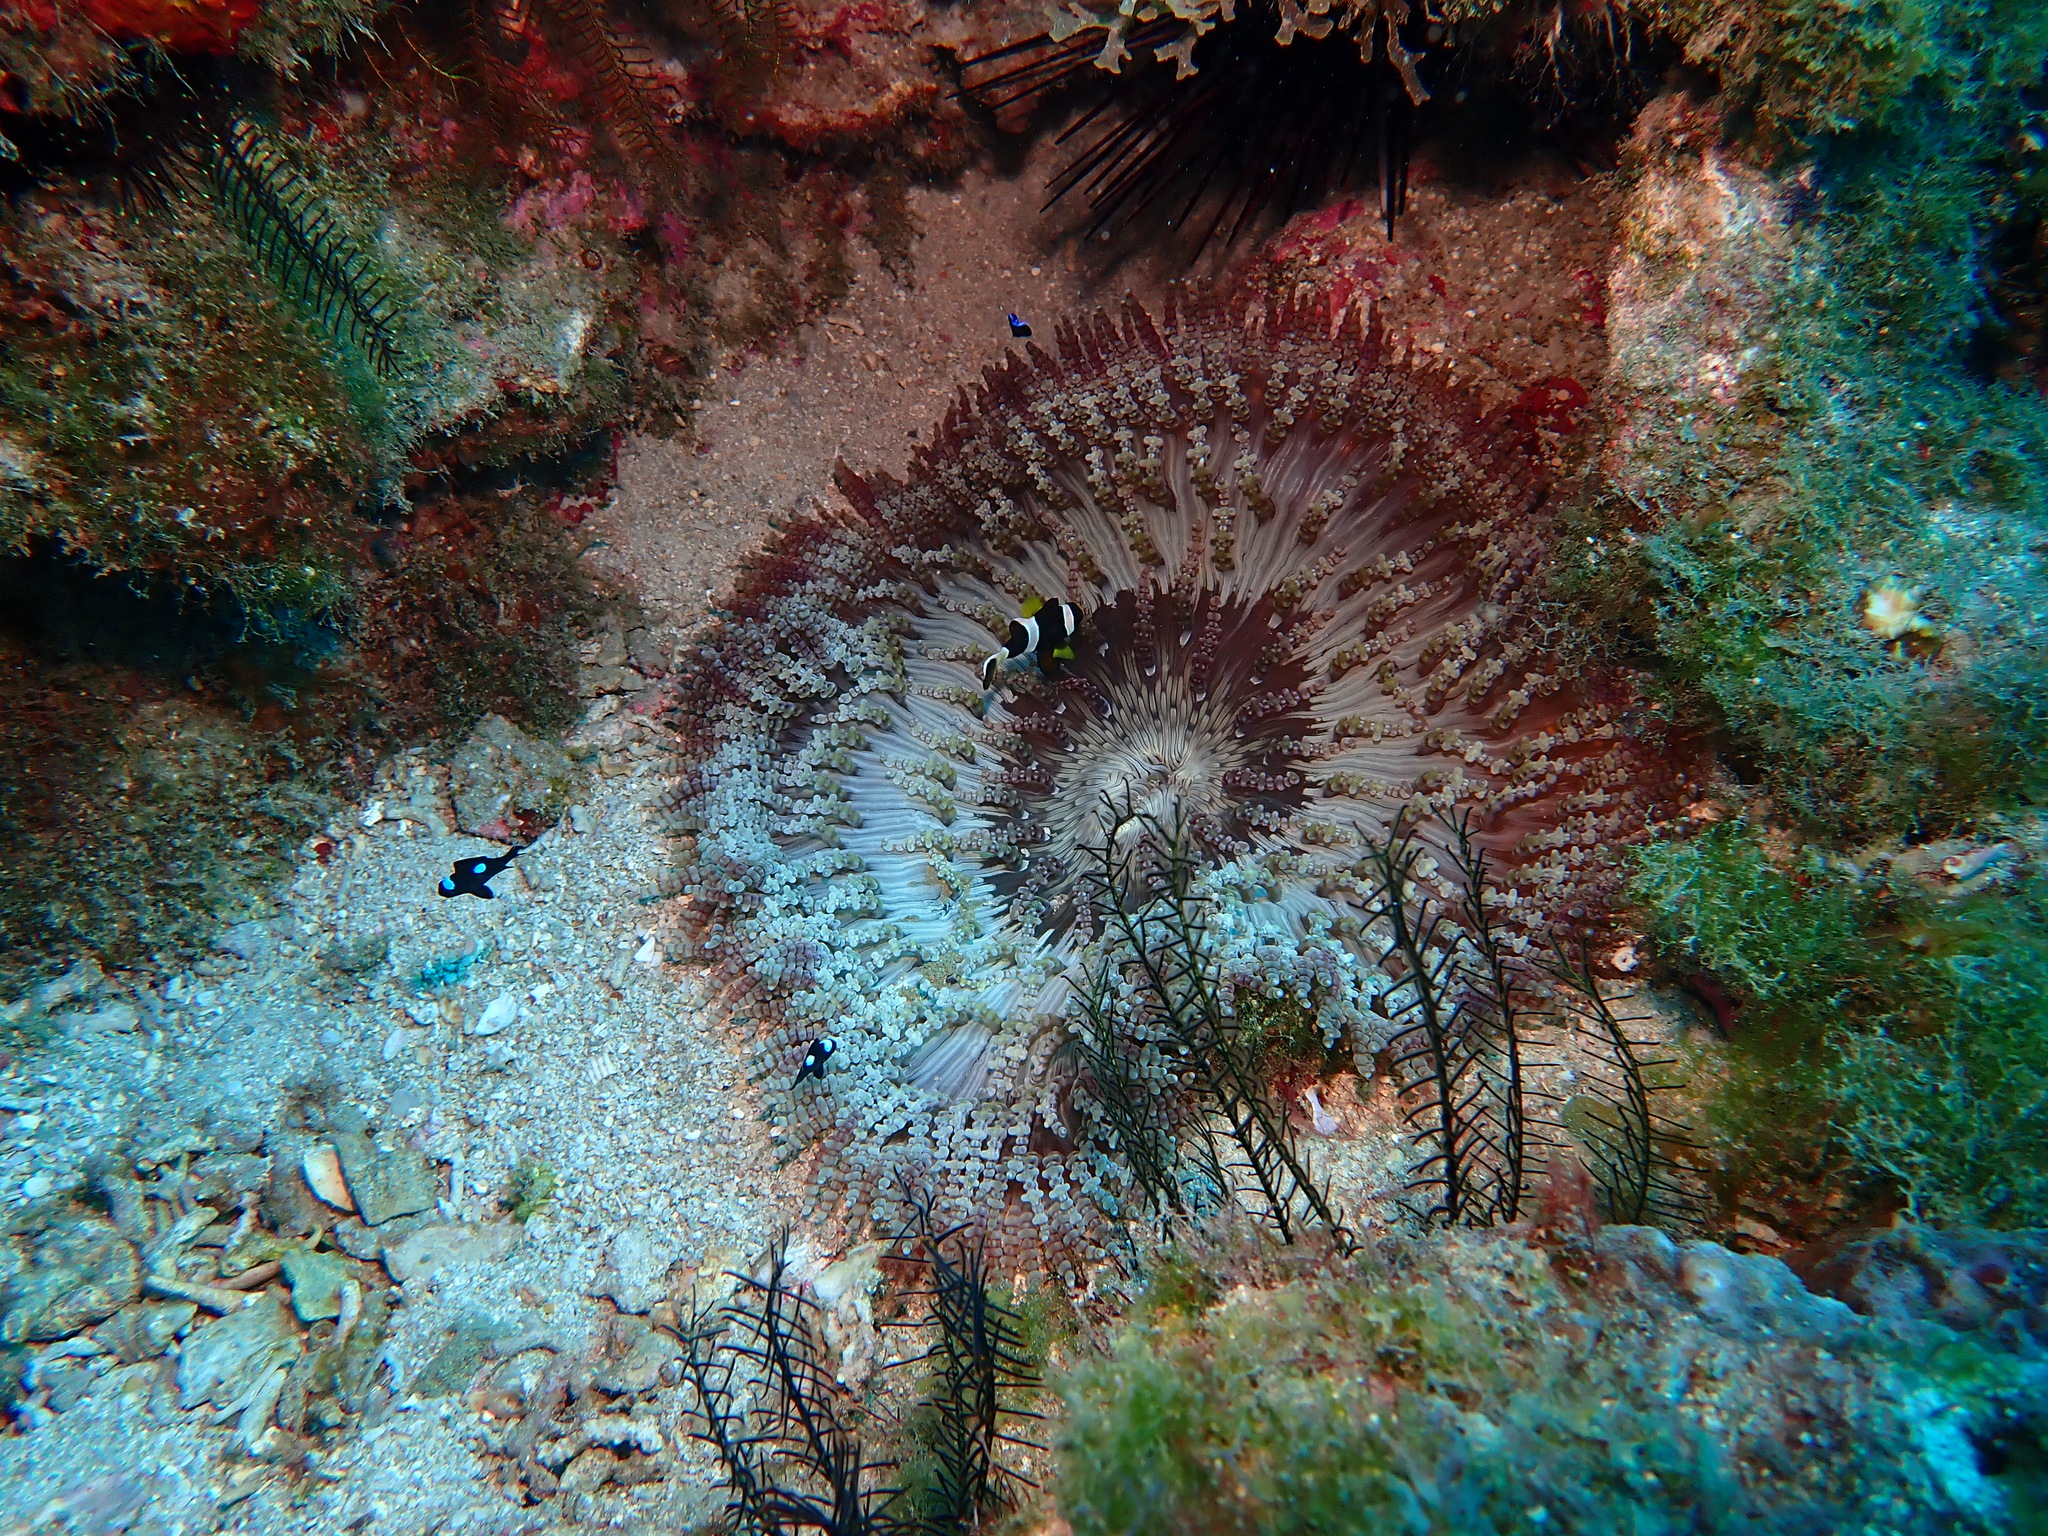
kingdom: Animalia
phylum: Cnidaria
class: Anthozoa
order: Actiniaria
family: Heteractidae
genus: Heteractis
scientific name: Heteractis aurora
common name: Beaded sea anemone
